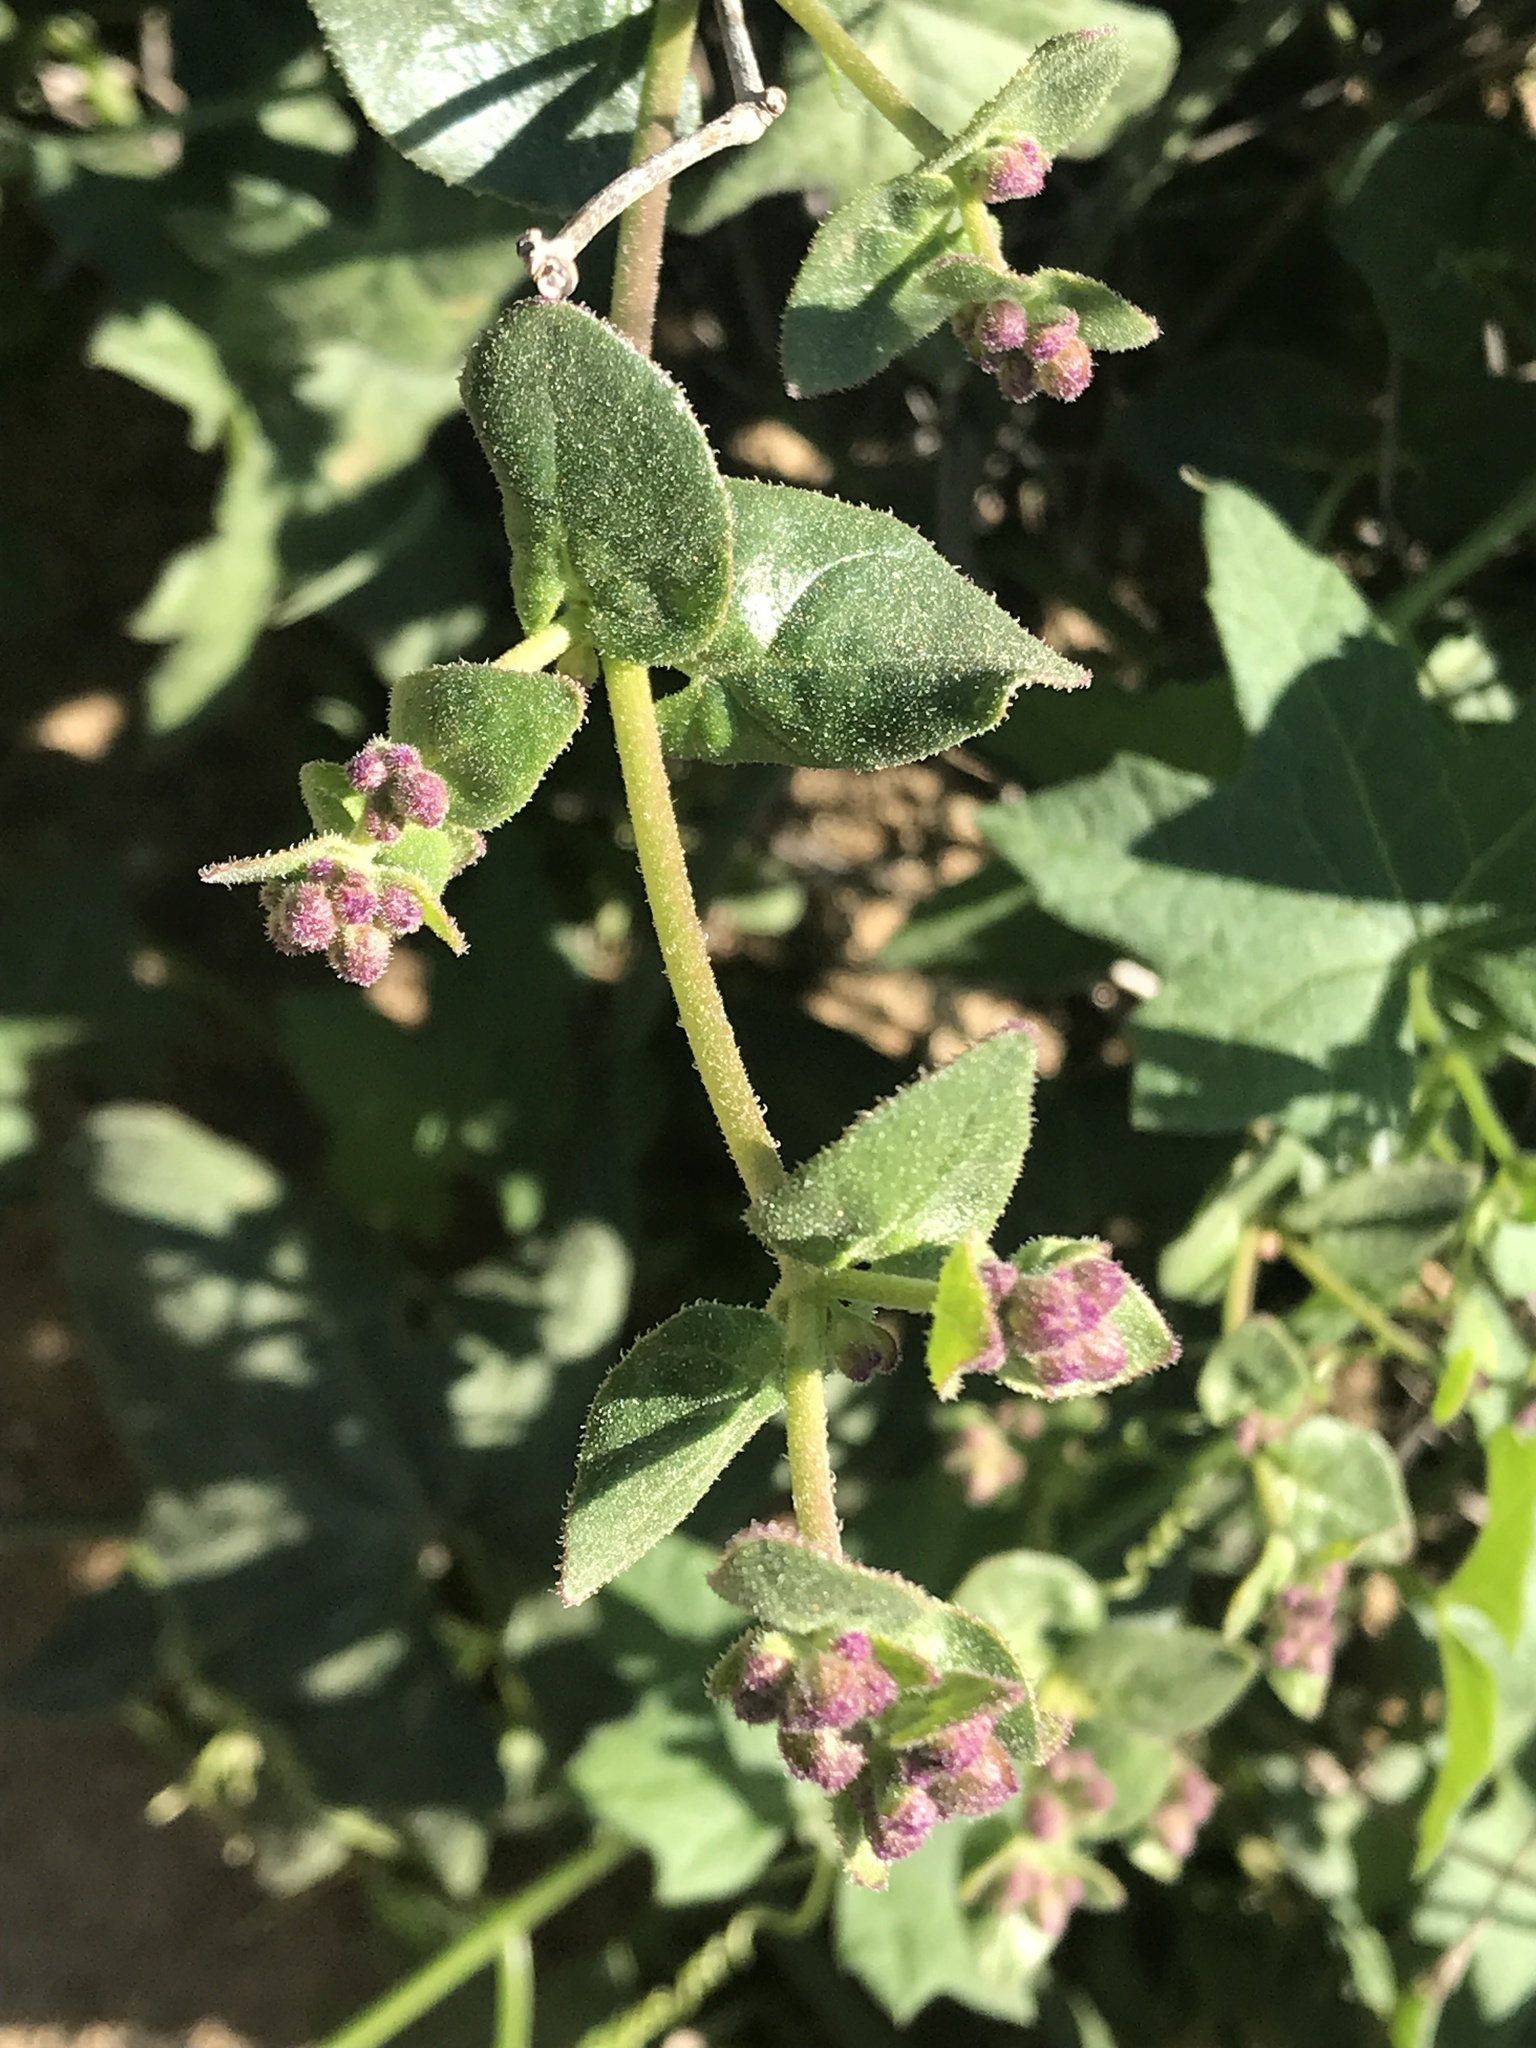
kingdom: Plantae
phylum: Tracheophyta
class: Magnoliopsida
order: Caryophyllales
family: Nyctaginaceae
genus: Mirabilis
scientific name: Mirabilis laevis
